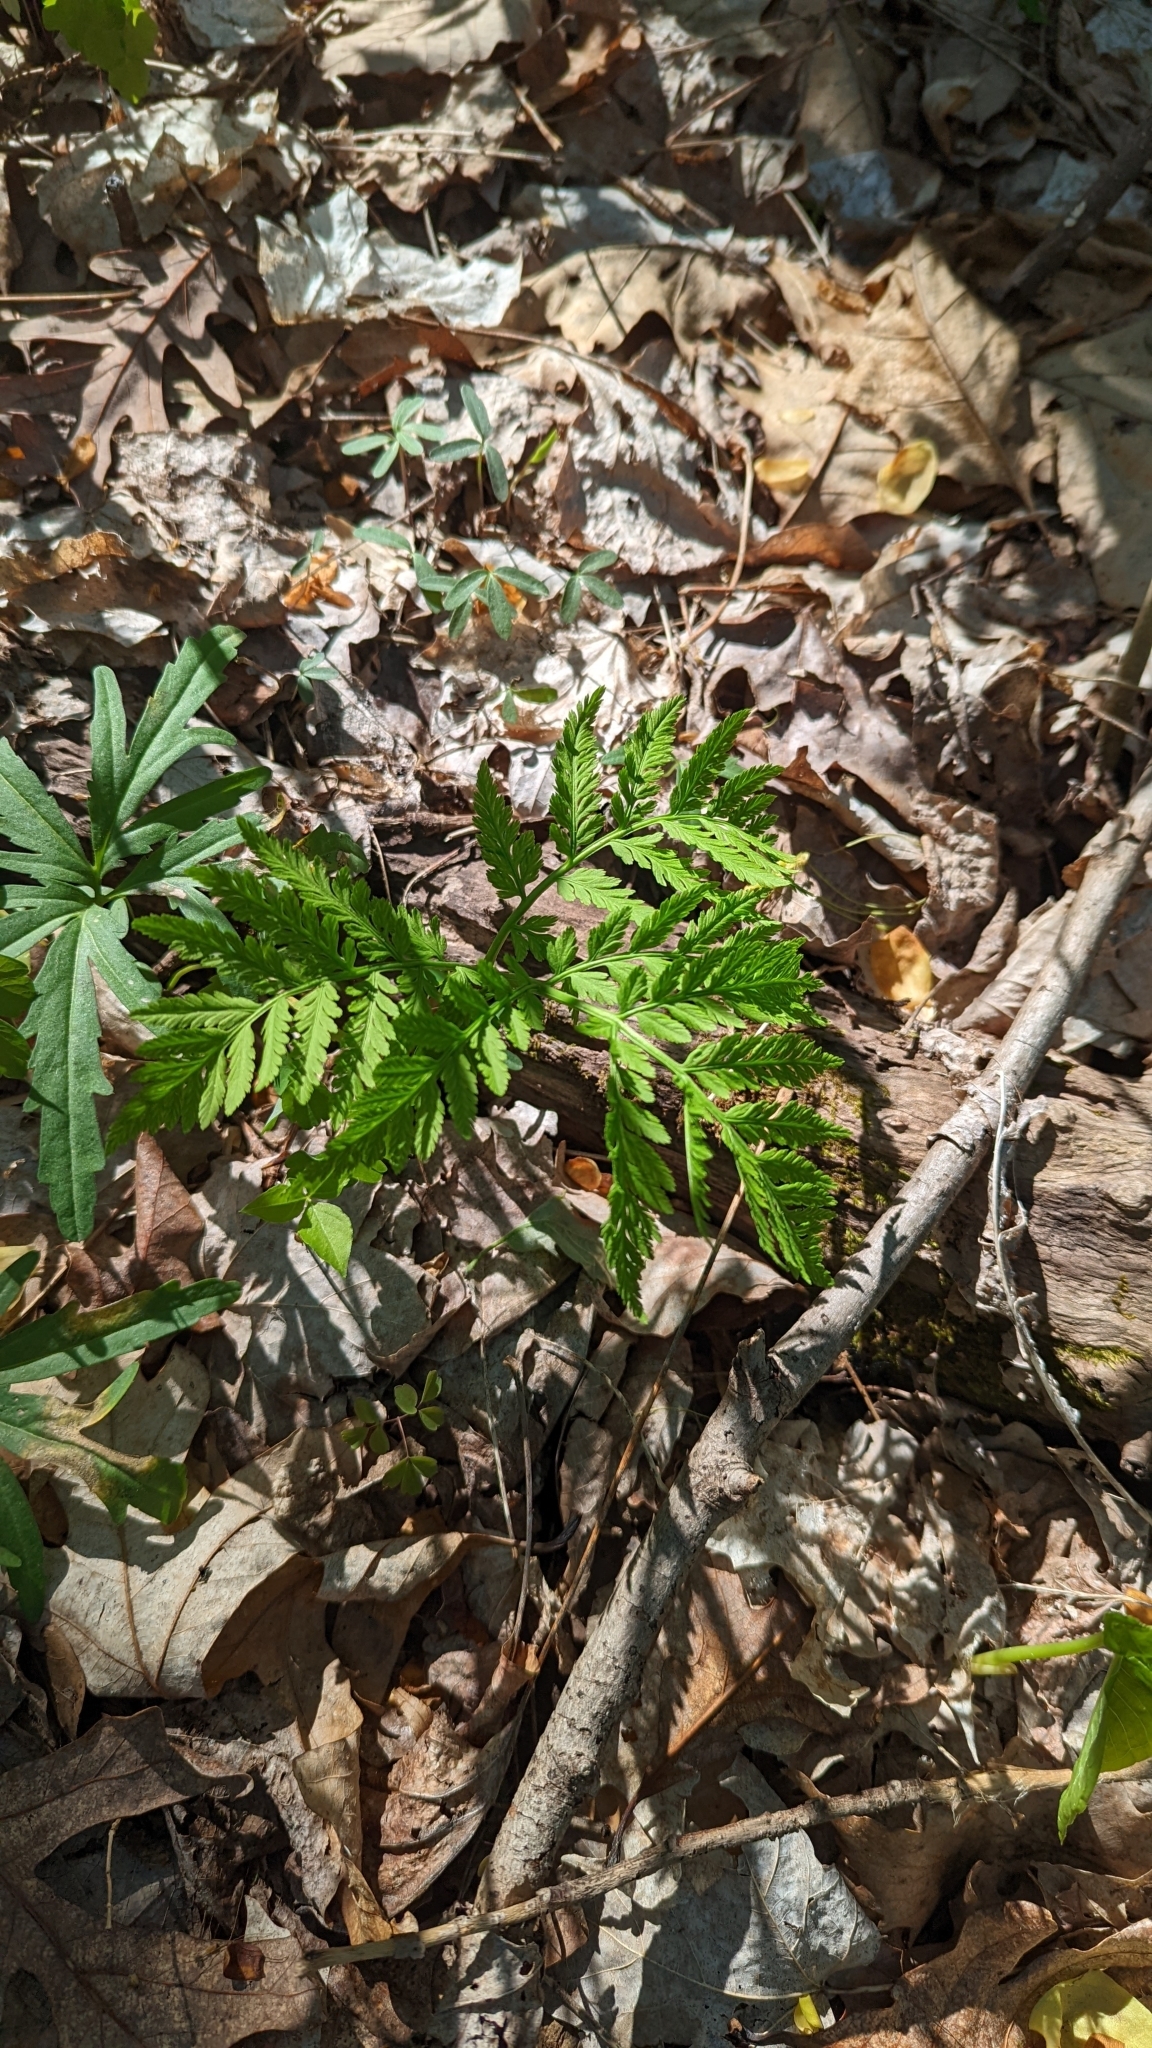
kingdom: Plantae
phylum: Tracheophyta
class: Polypodiopsida
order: Ophioglossales
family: Ophioglossaceae
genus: Botrypus
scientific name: Botrypus virginianus
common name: Common grapefern
